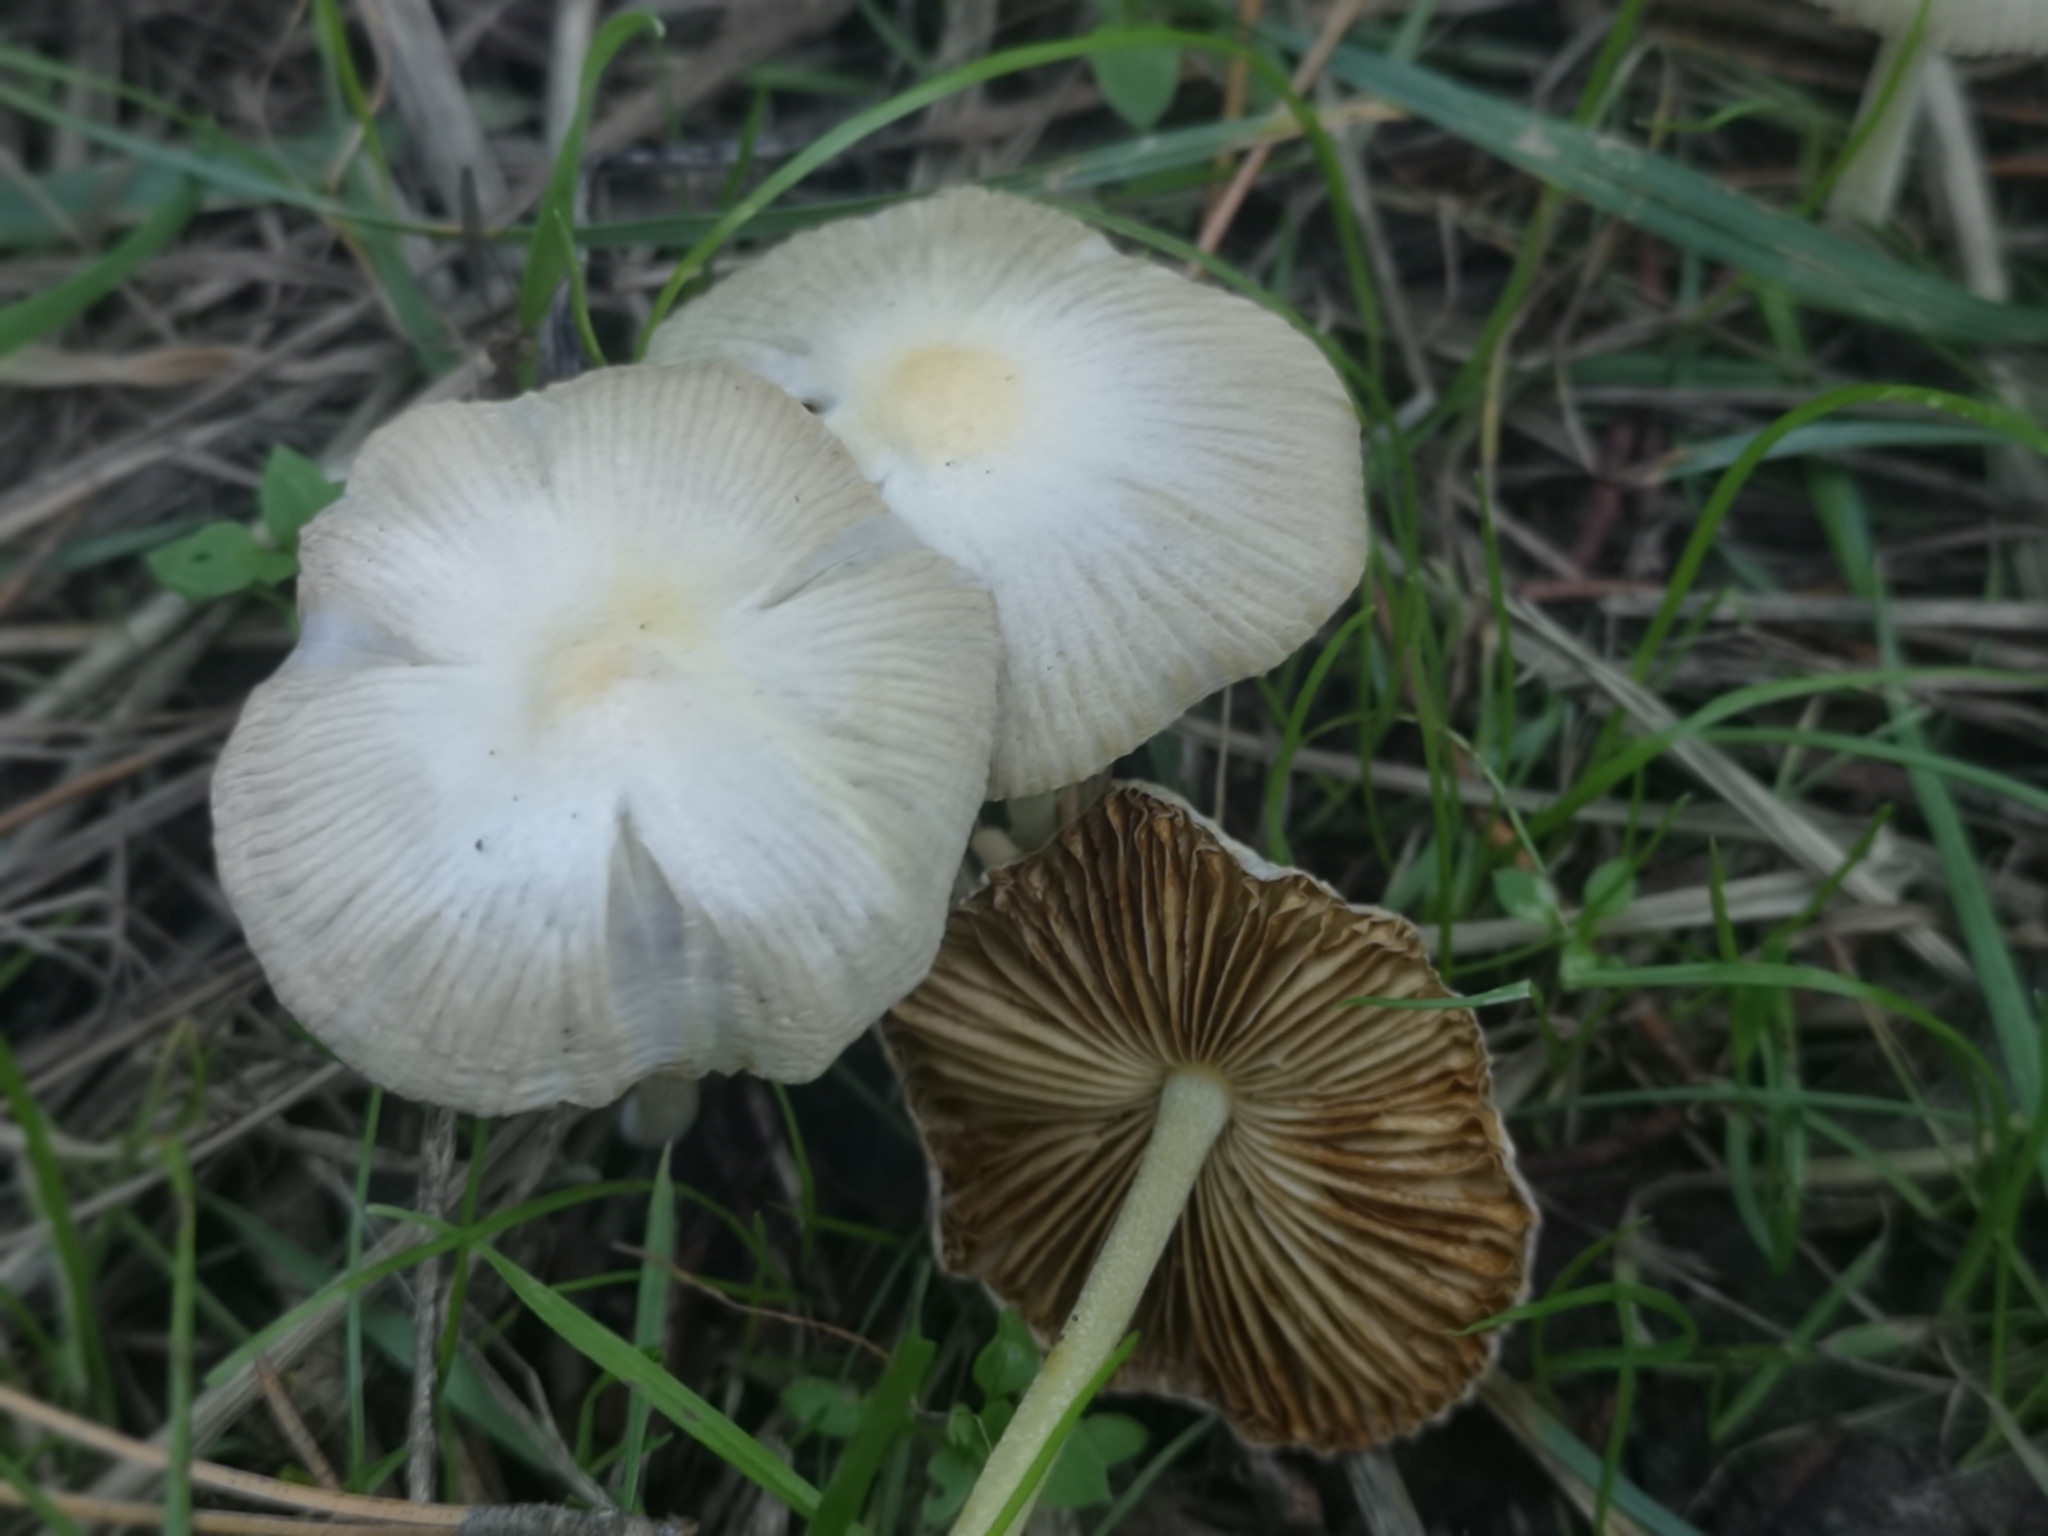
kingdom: Fungi
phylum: Basidiomycota
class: Agaricomycetes
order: Agaricales
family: Bolbitiaceae
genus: Bolbitius
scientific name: Bolbitius titubans
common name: Yellow fieldcap
